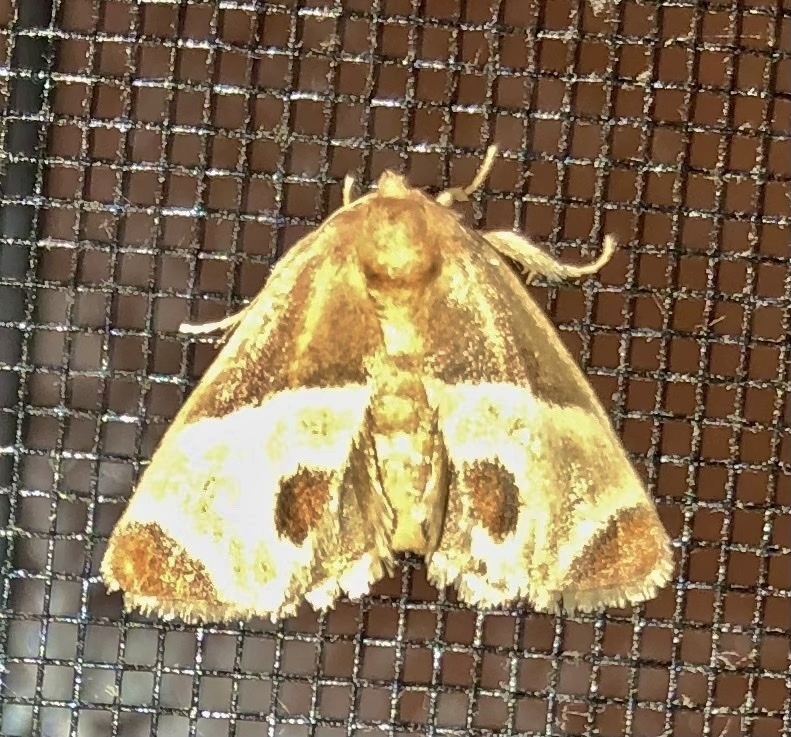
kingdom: Animalia
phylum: Arthropoda
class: Insecta
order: Lepidoptera
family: Limacodidae
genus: Apoda
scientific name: Apoda biguttata
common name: Shagreened slug moth
